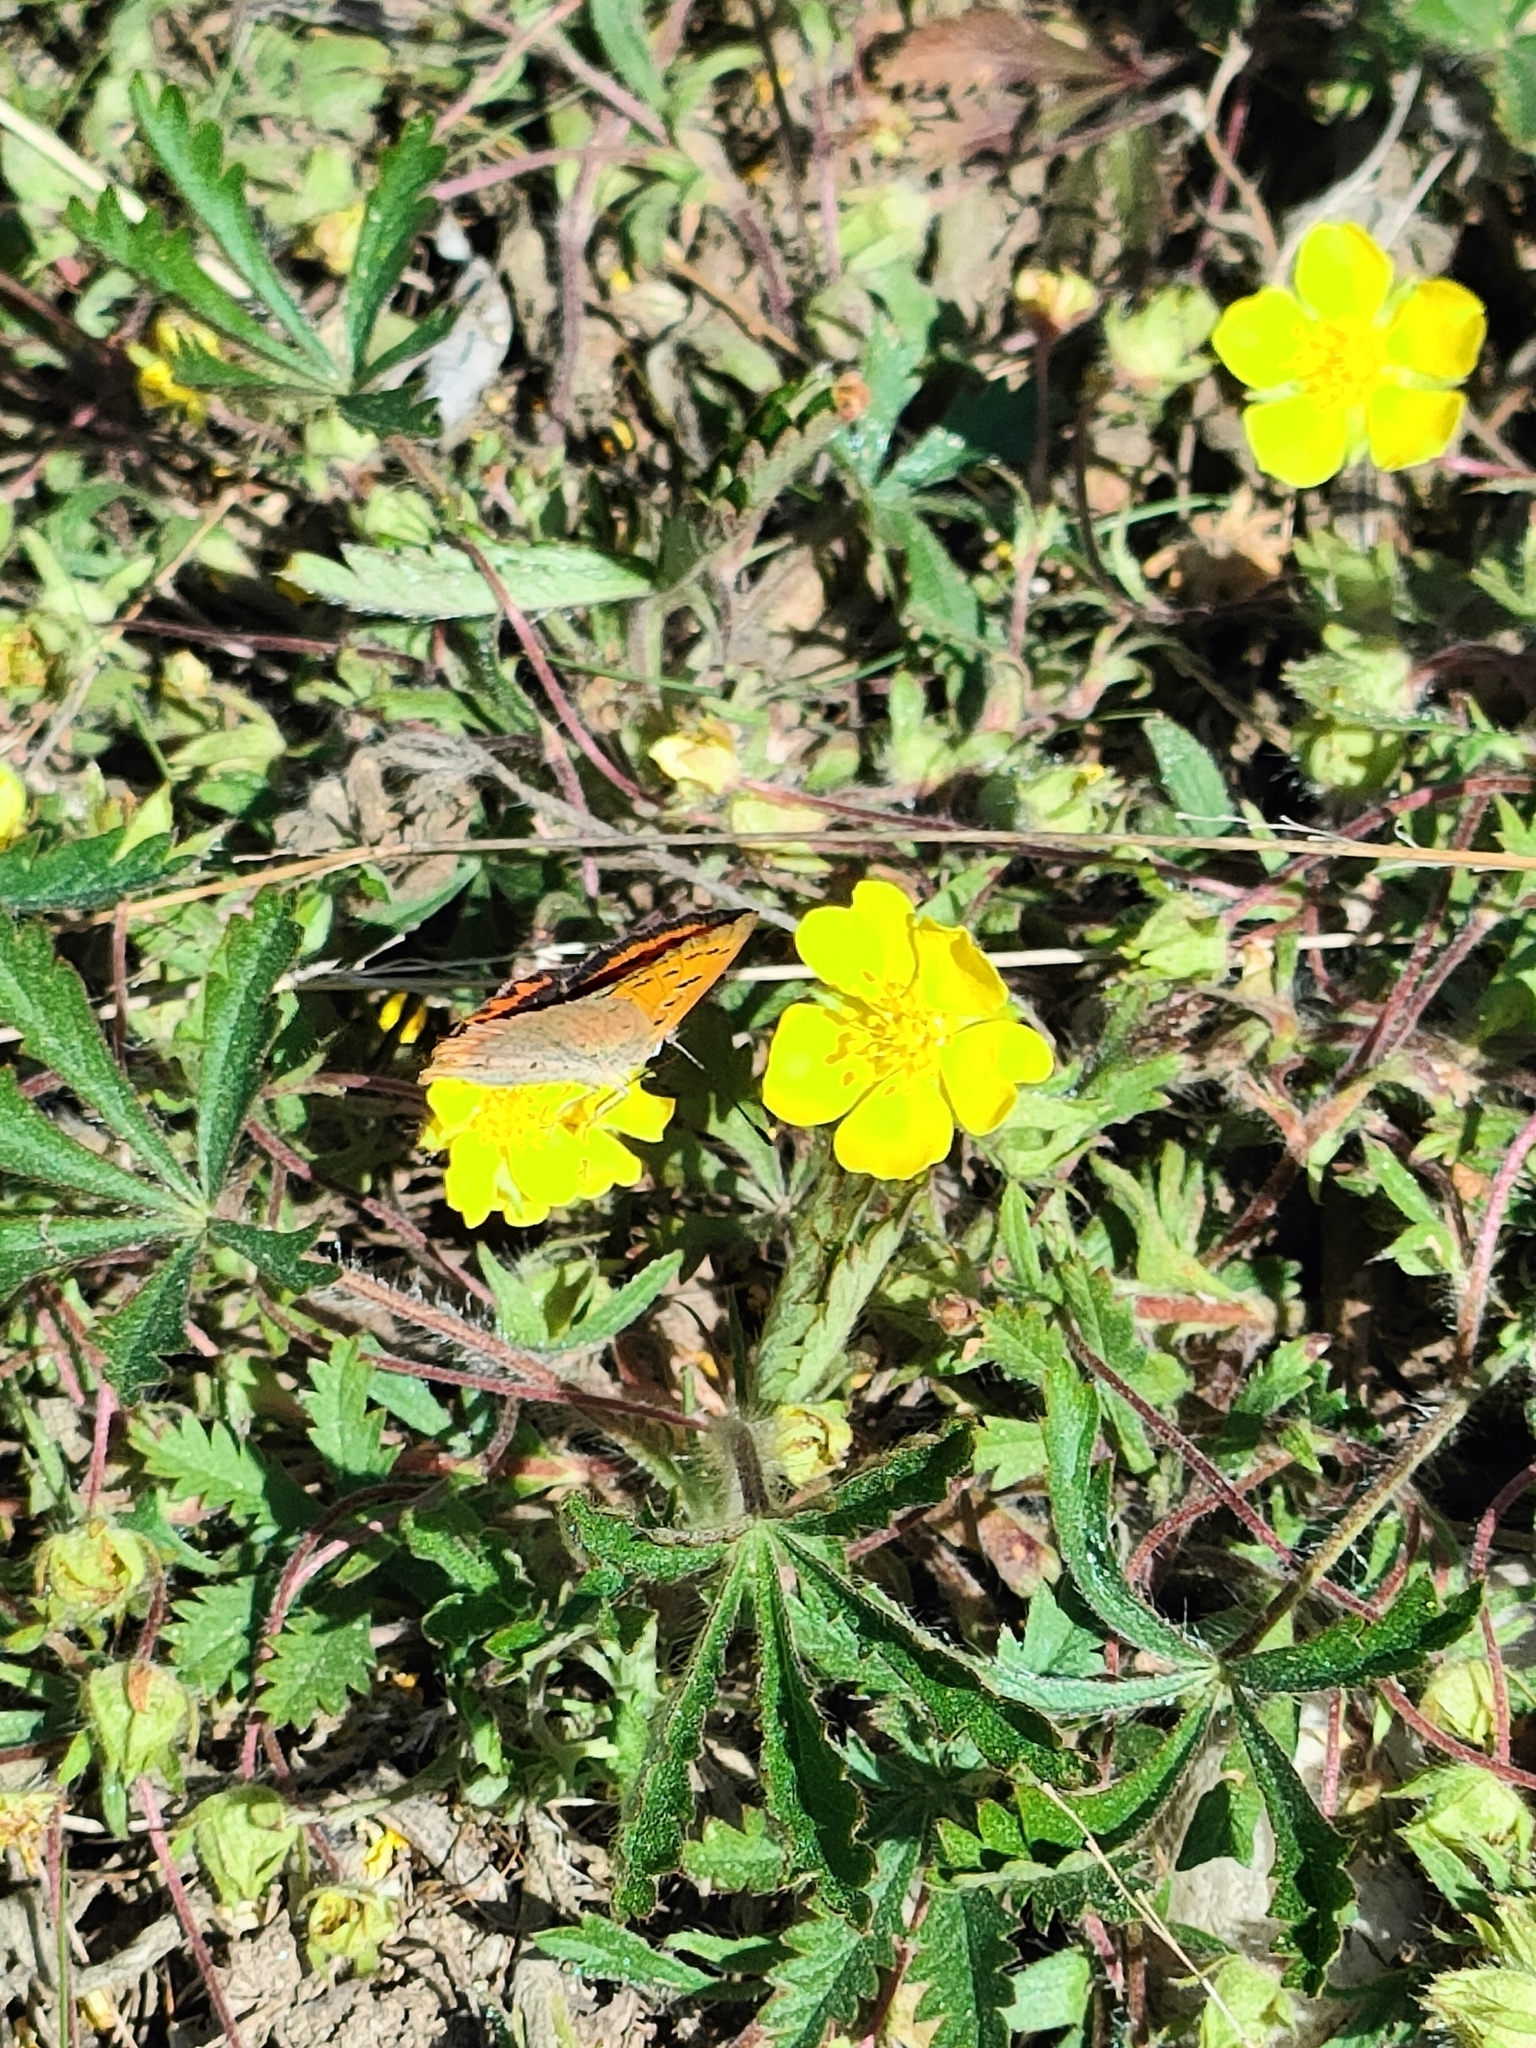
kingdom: Animalia
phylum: Arthropoda
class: Insecta
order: Lepidoptera
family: Lycaenidae
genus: Lycaena
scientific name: Lycaena phlaeas
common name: Small copper
